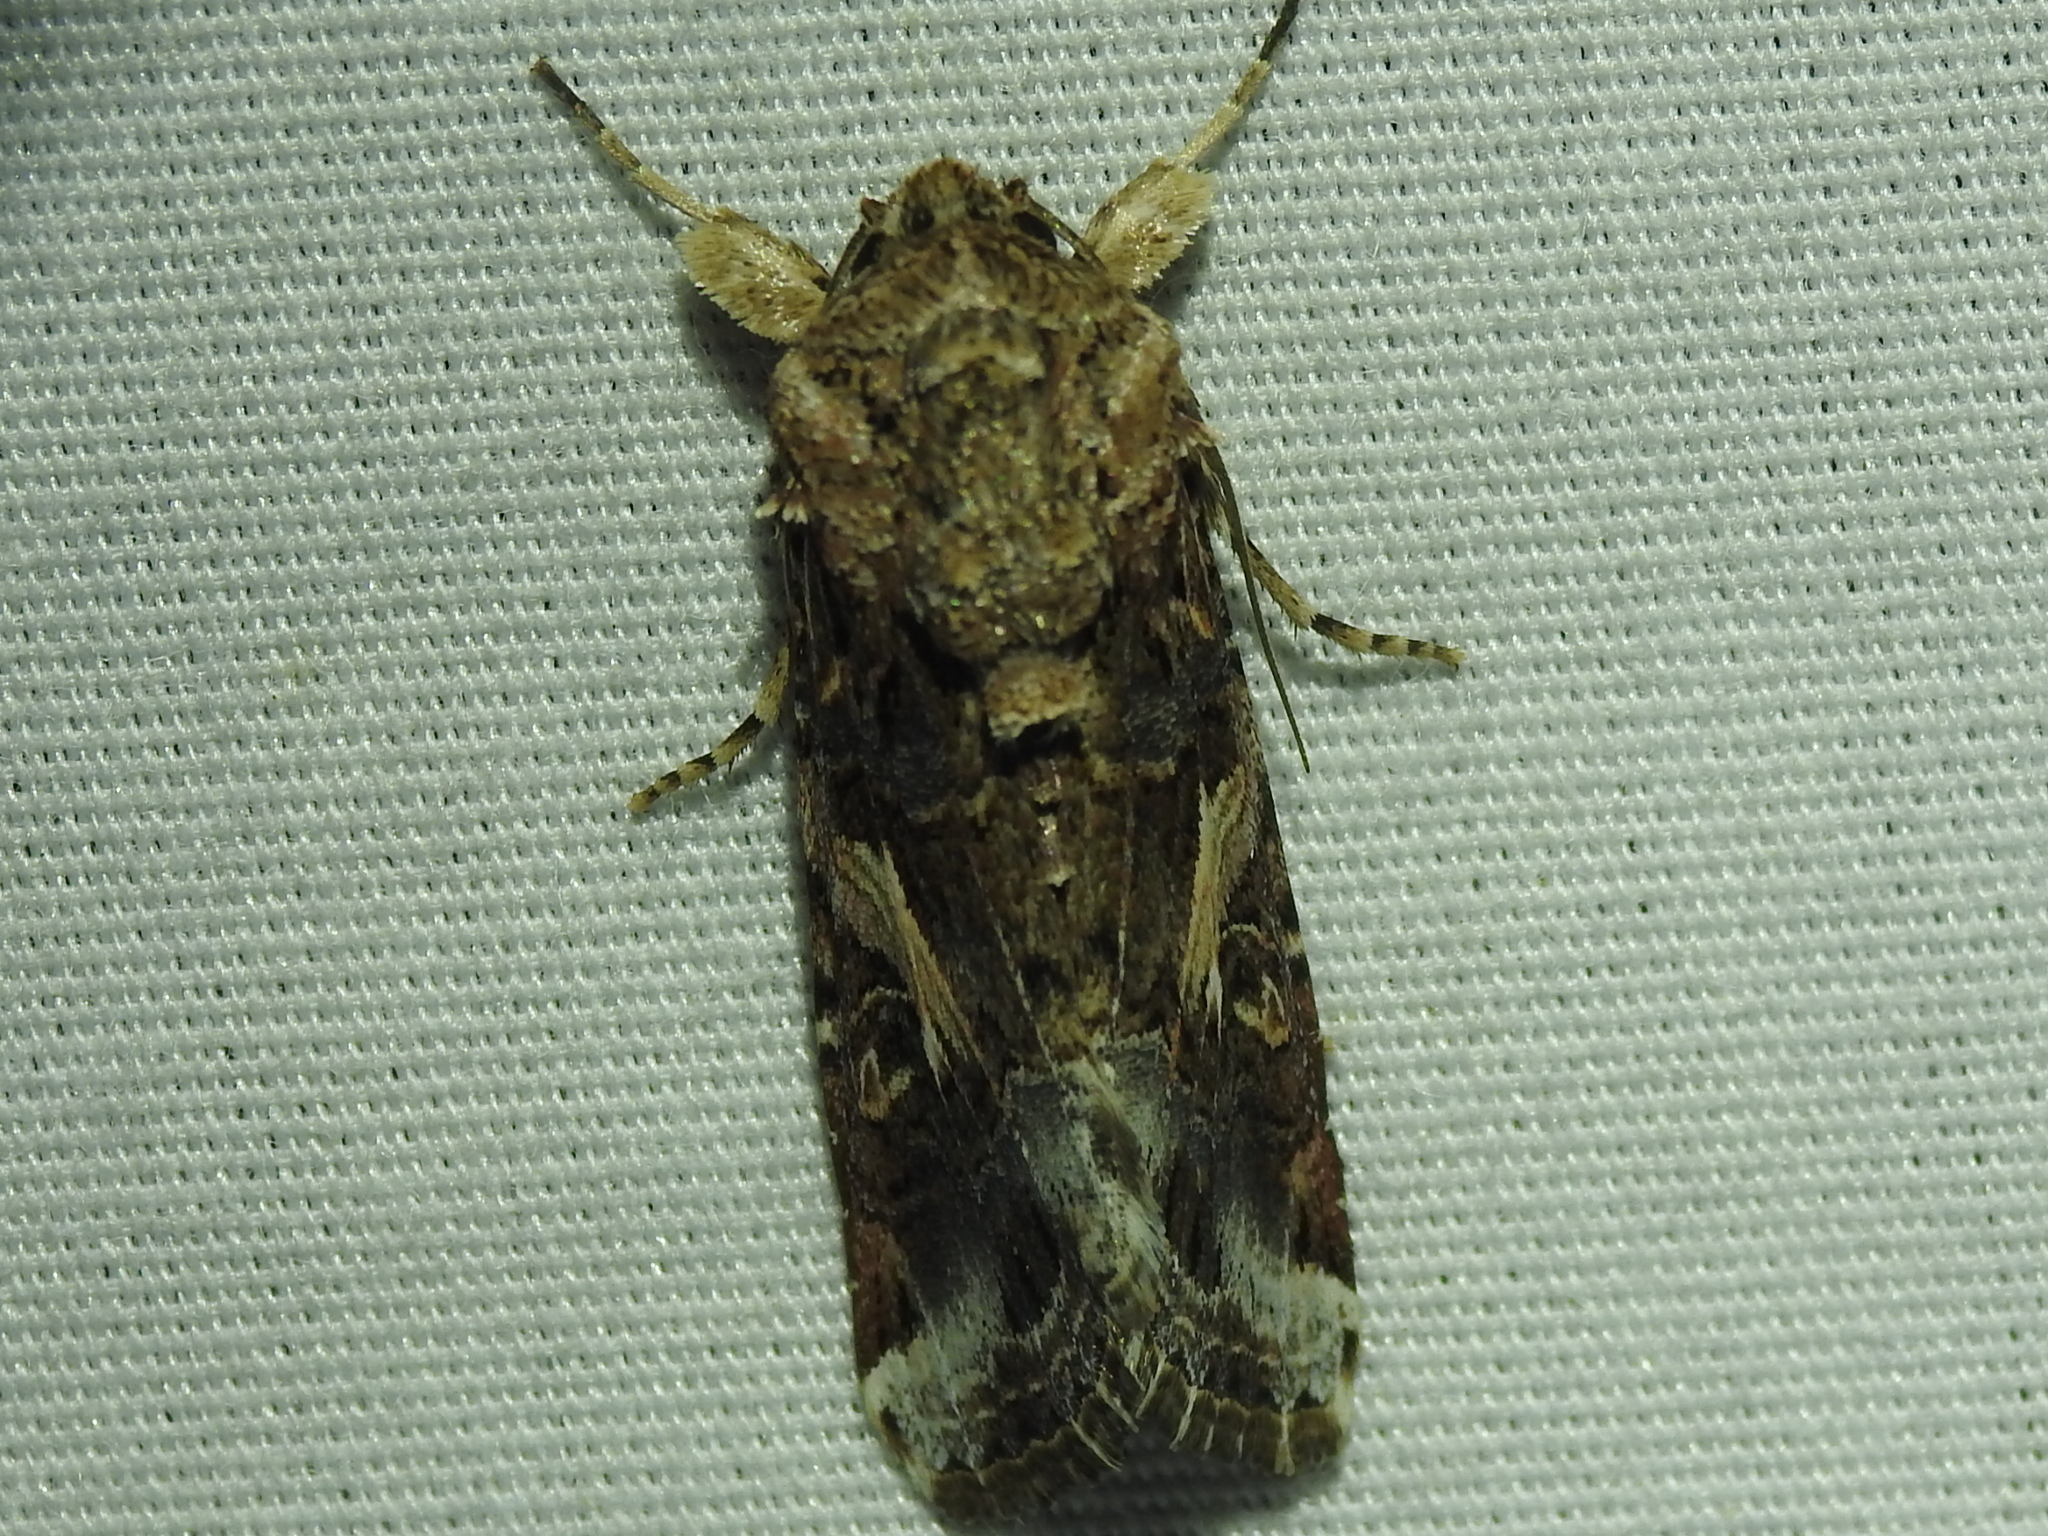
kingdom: Animalia
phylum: Arthropoda
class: Insecta
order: Lepidoptera
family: Noctuidae
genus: Spodoptera
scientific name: Spodoptera ornithogalli
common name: Yellow-striped armyworm
